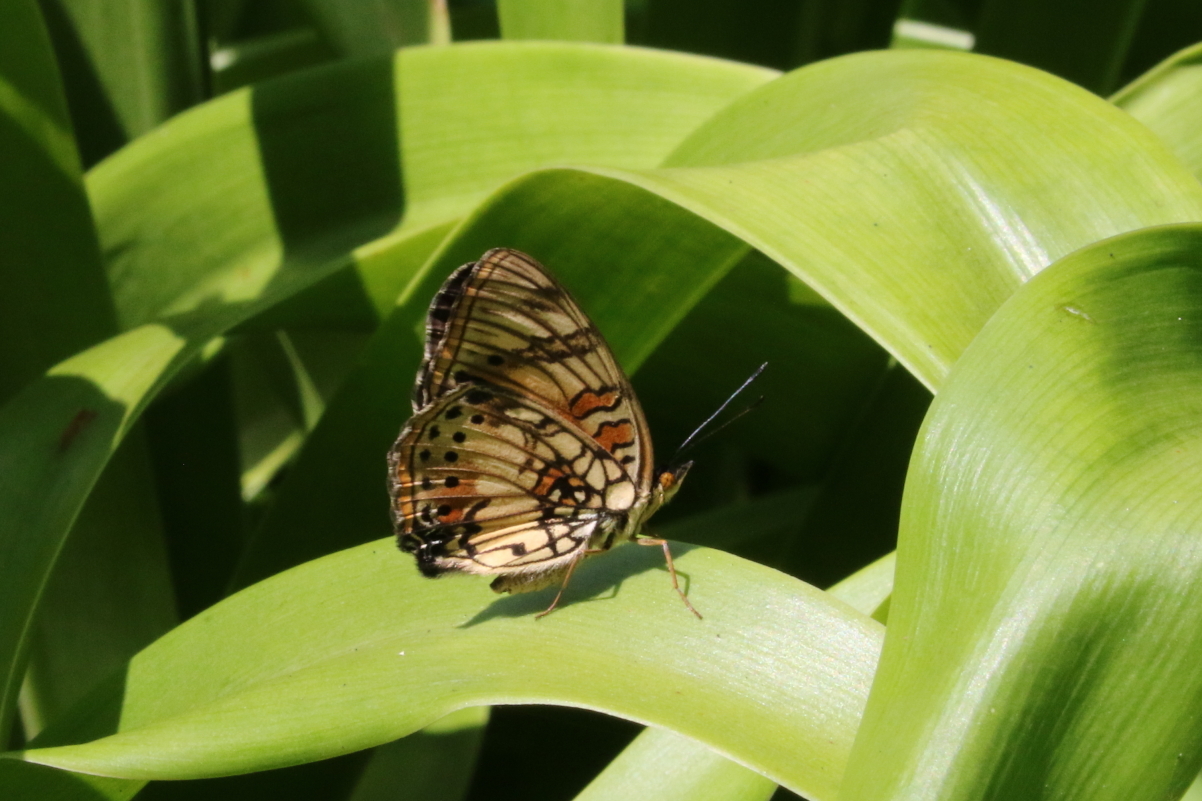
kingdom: Animalia
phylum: Arthropoda
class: Insecta
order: Lepidoptera
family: Nymphalidae
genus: Junonia
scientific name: Junonia sophia
